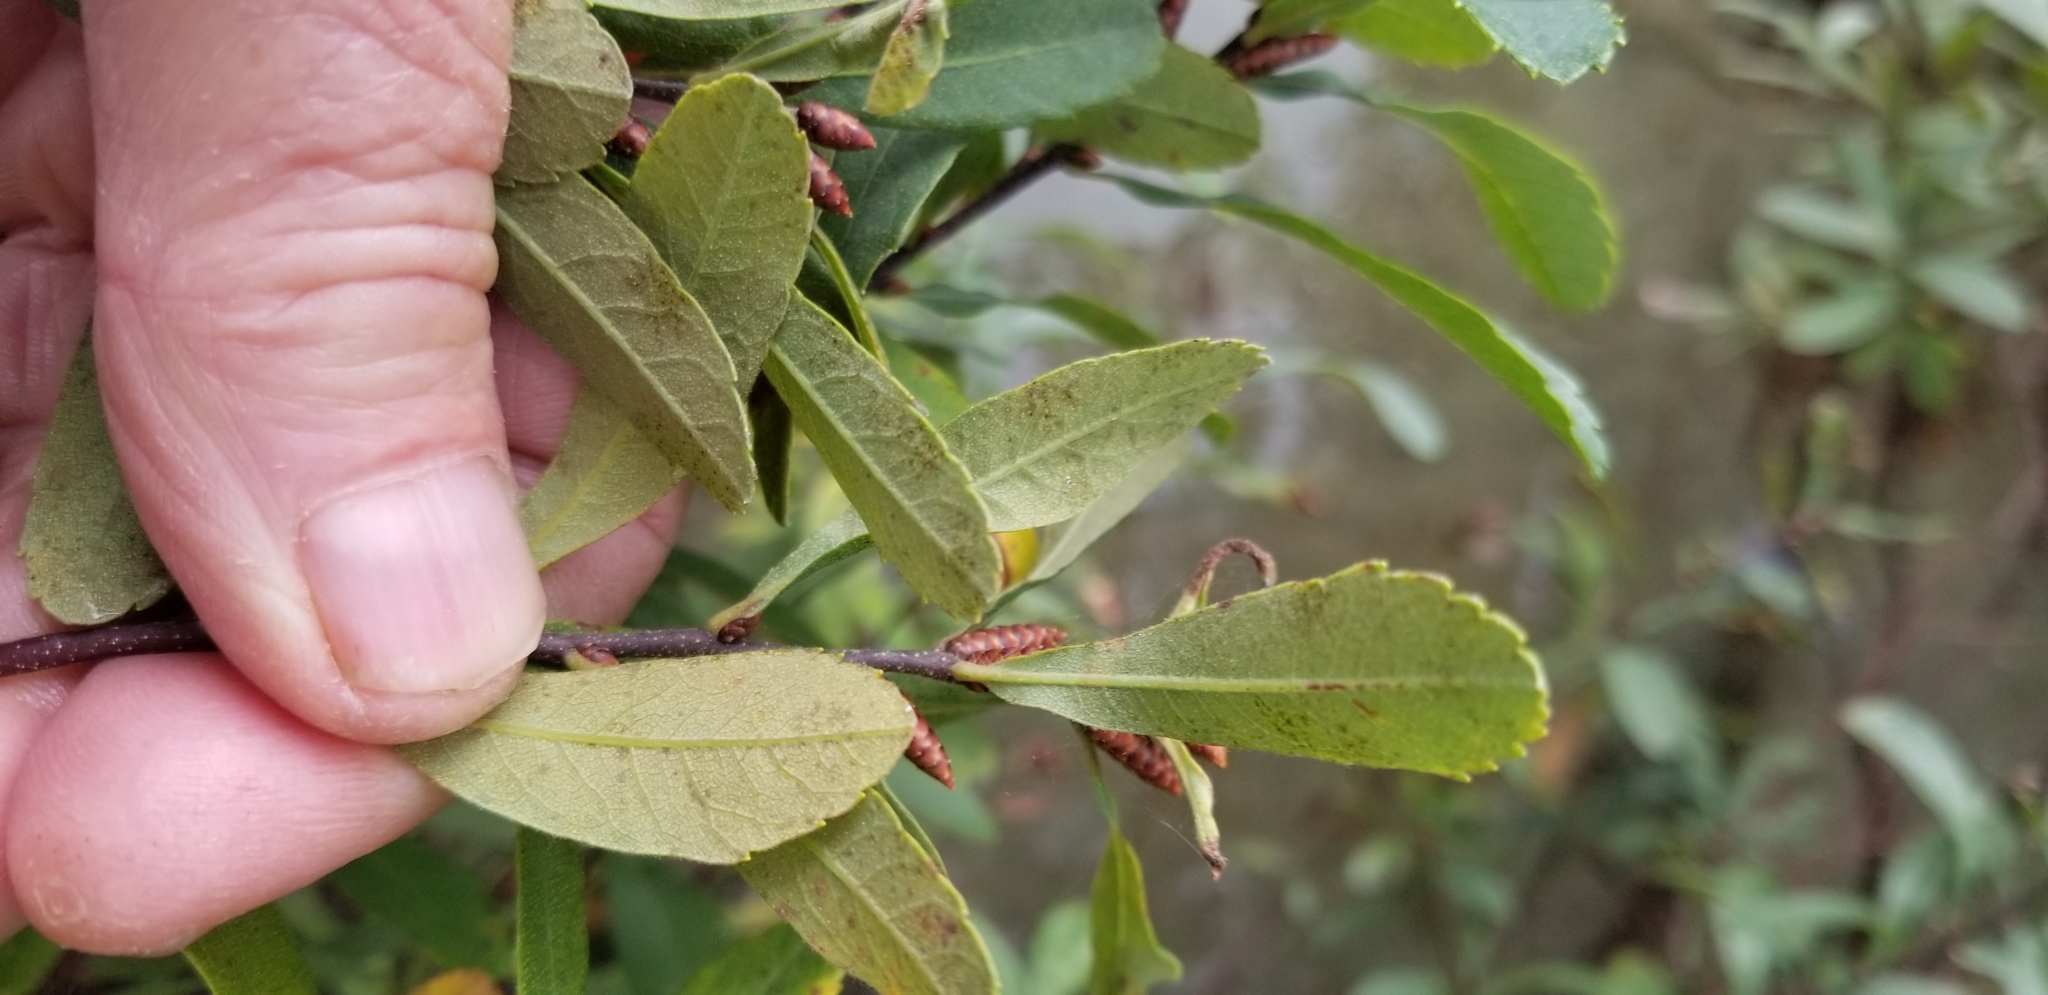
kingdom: Plantae
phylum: Tracheophyta
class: Magnoliopsida
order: Fagales
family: Myricaceae
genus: Myrica
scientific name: Myrica gale
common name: Sweet gale
